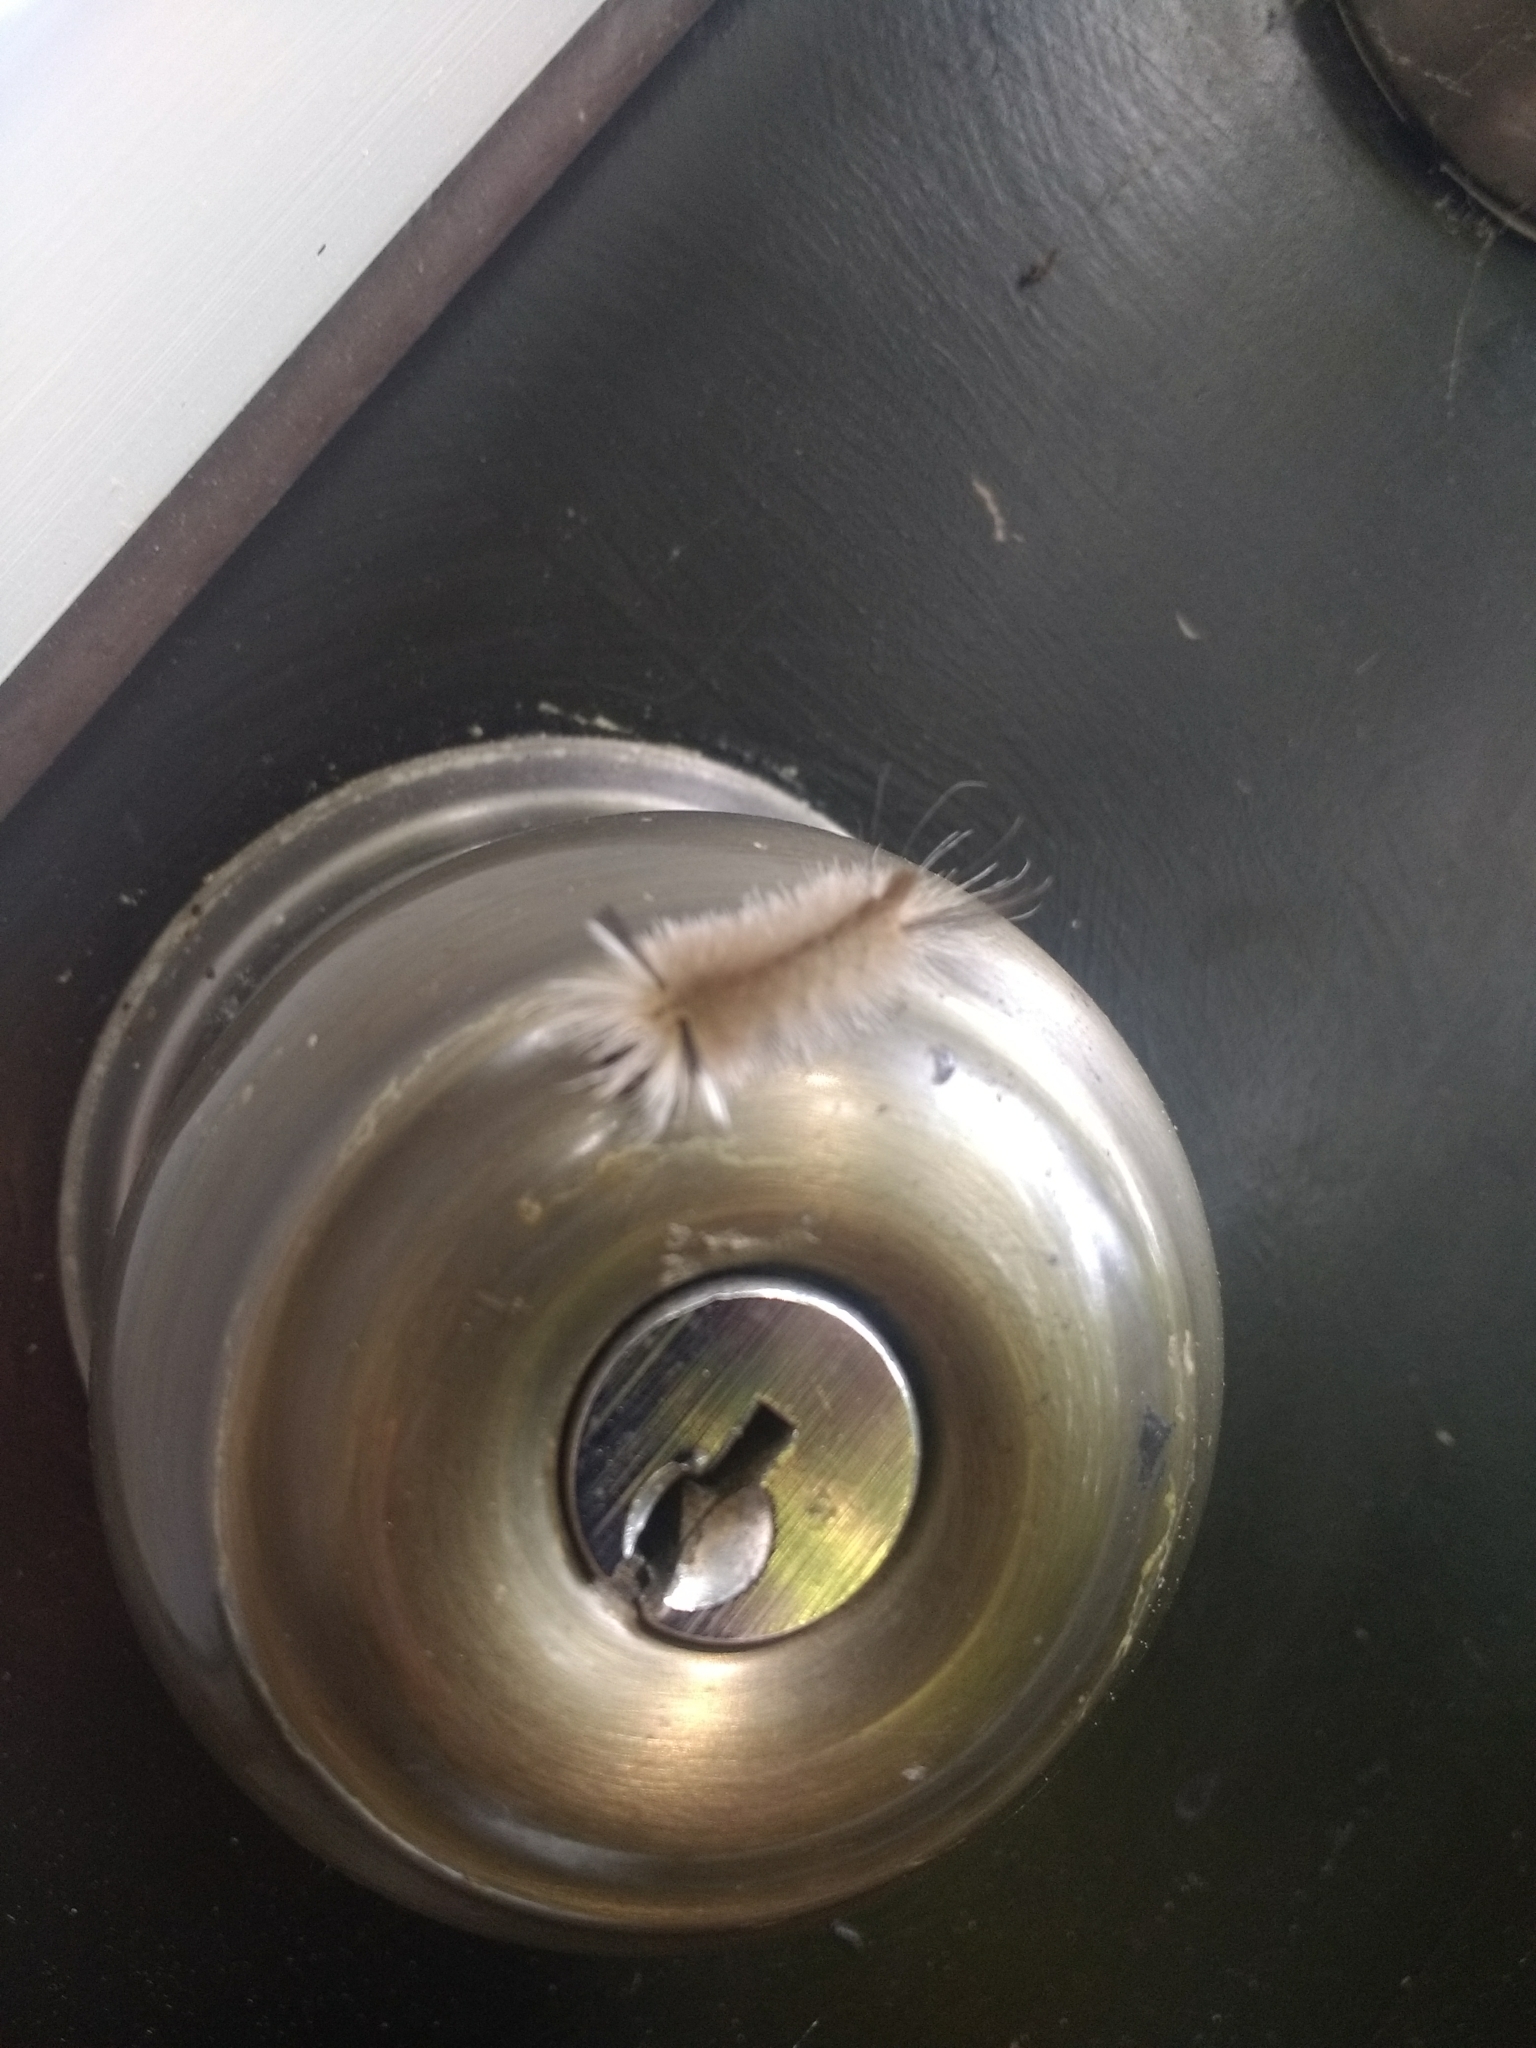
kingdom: Animalia
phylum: Arthropoda
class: Insecta
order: Lepidoptera
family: Erebidae
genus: Halysidota
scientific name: Halysidota tessellaris
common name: Banded tussock moth
